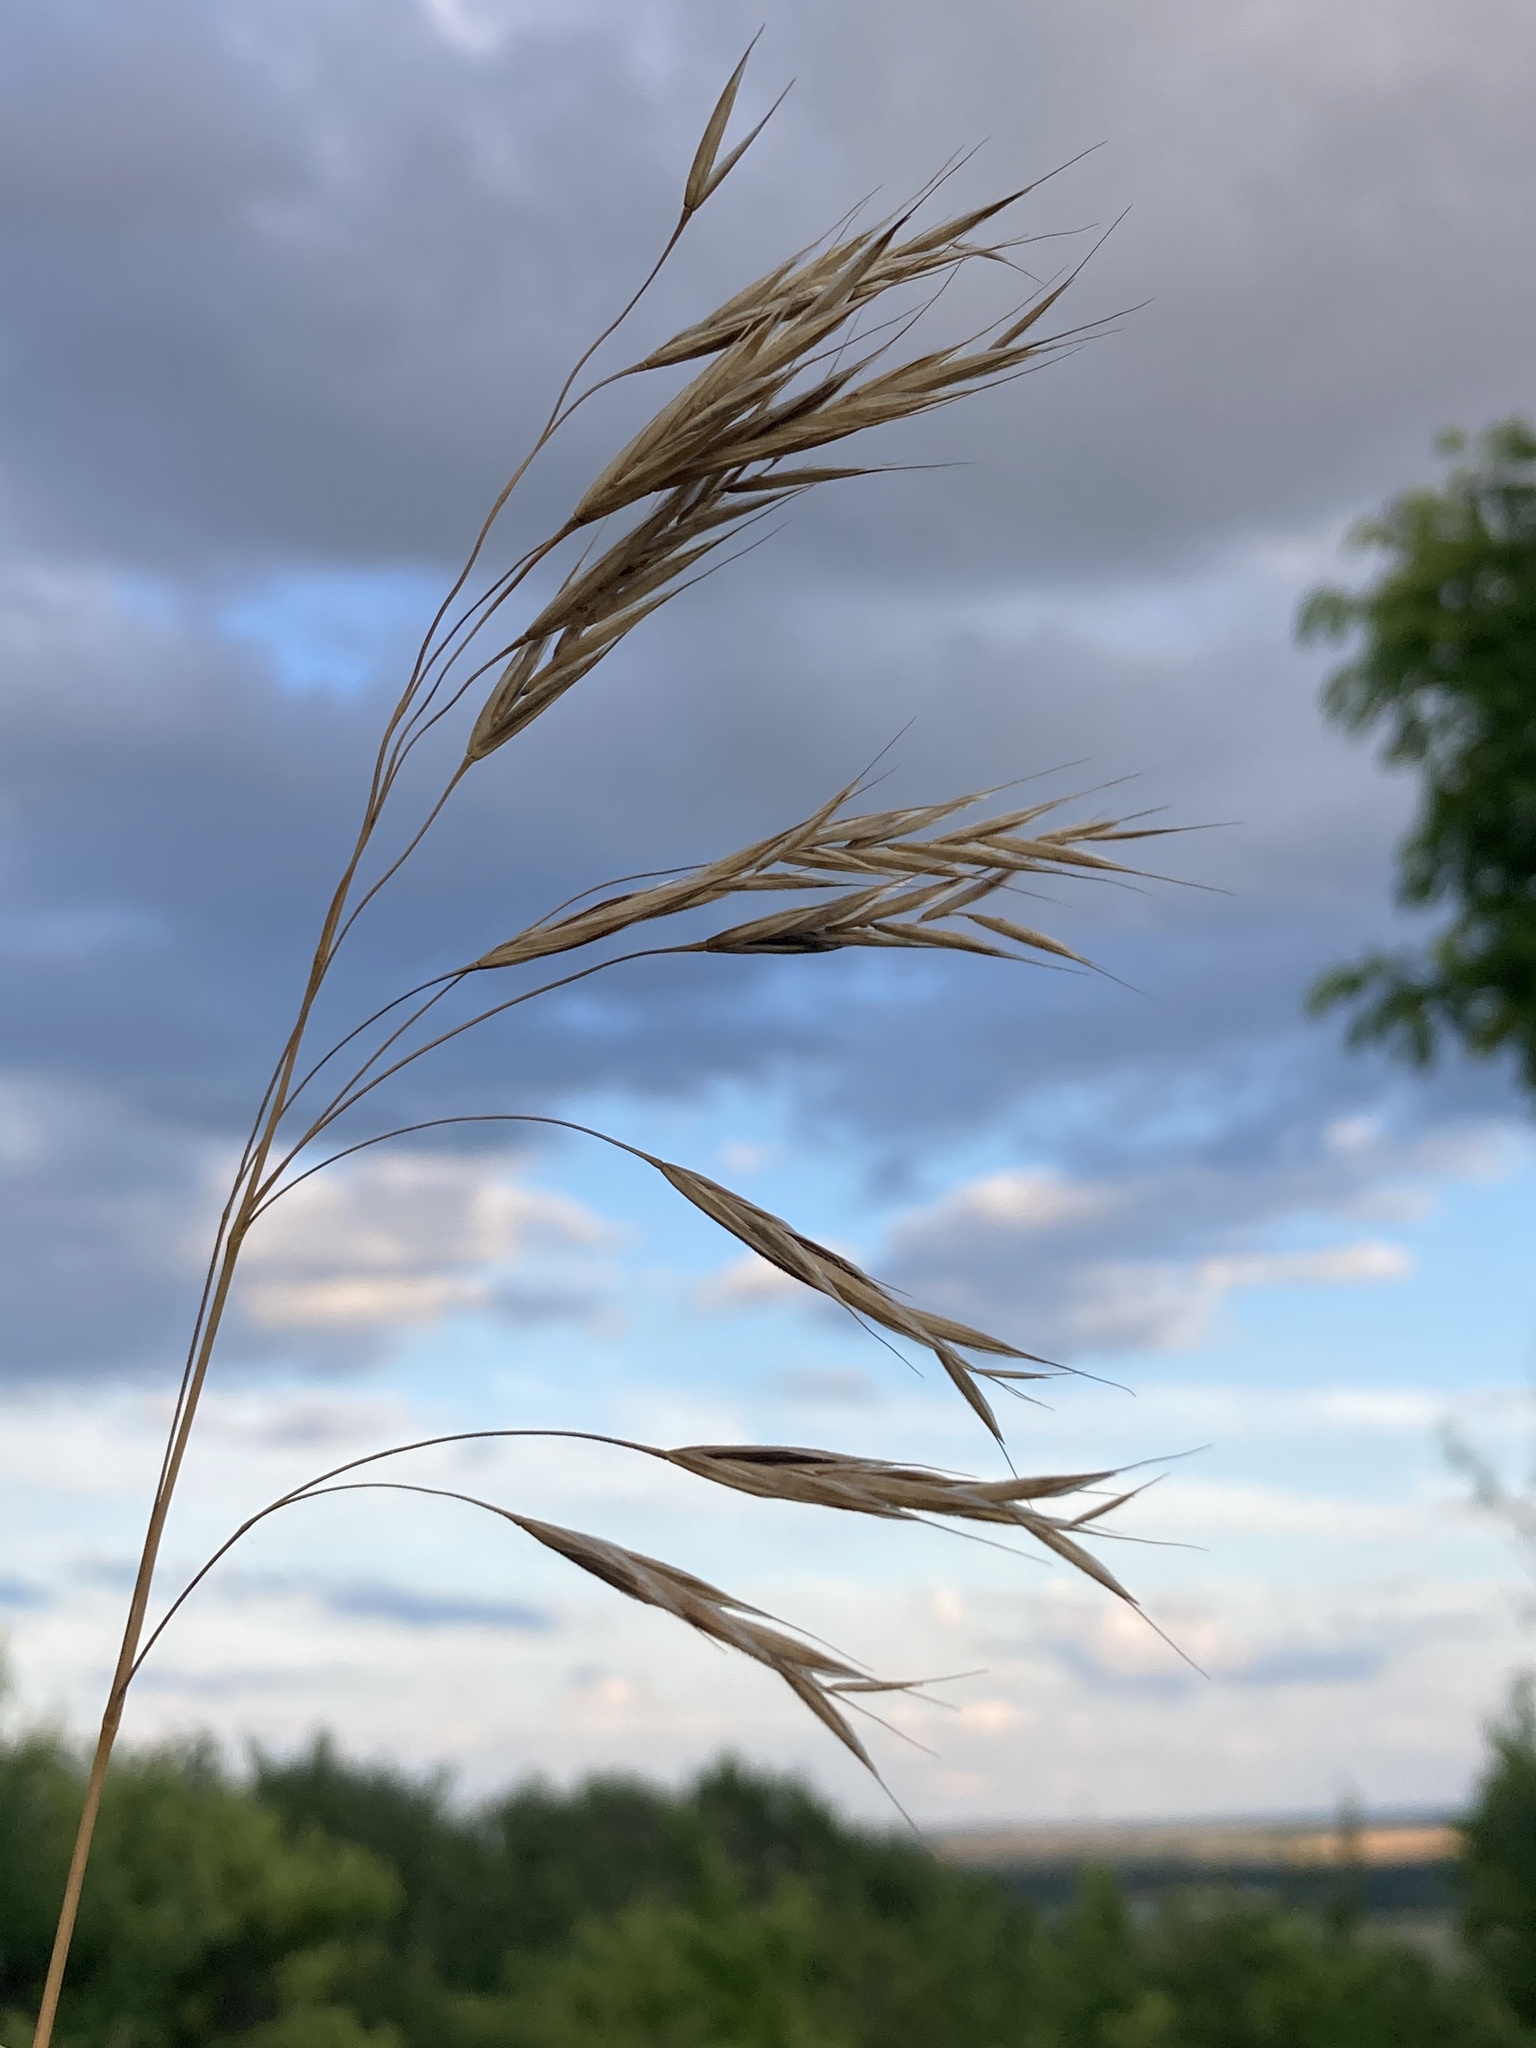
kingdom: Plantae
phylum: Tracheophyta
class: Liliopsida
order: Poales
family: Poaceae
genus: Bromus
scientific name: Bromus riparius
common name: Meadow brome
